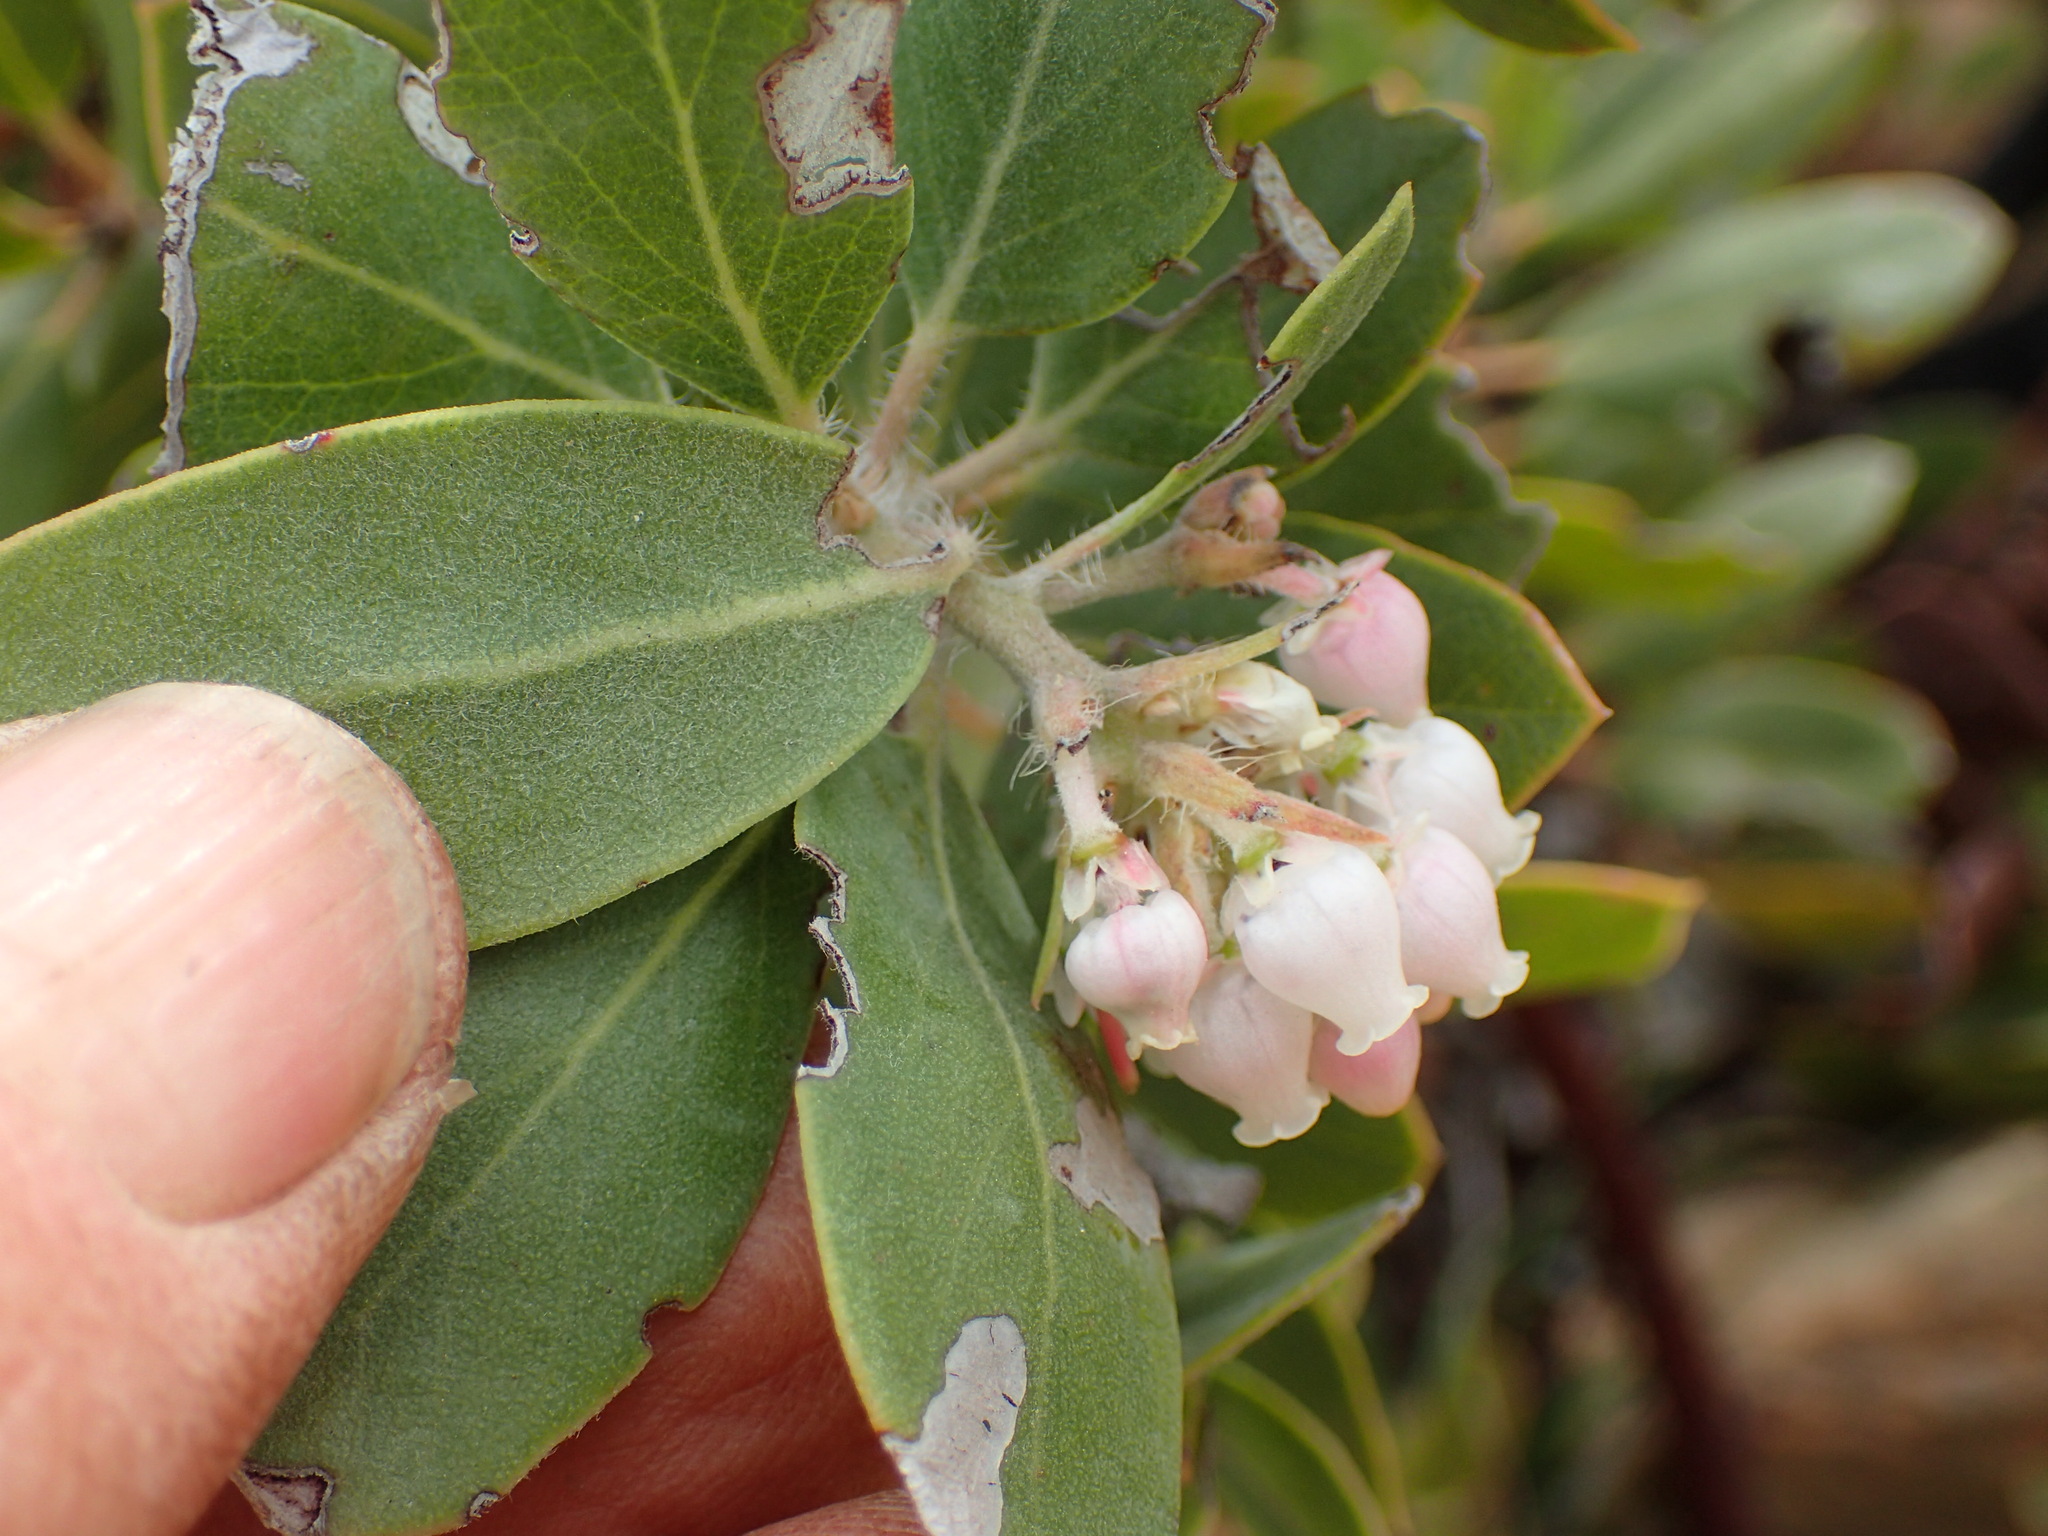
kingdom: Plantae
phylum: Tracheophyta
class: Magnoliopsida
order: Ericales
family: Ericaceae
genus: Arctostaphylos
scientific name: Arctostaphylos crustacea
